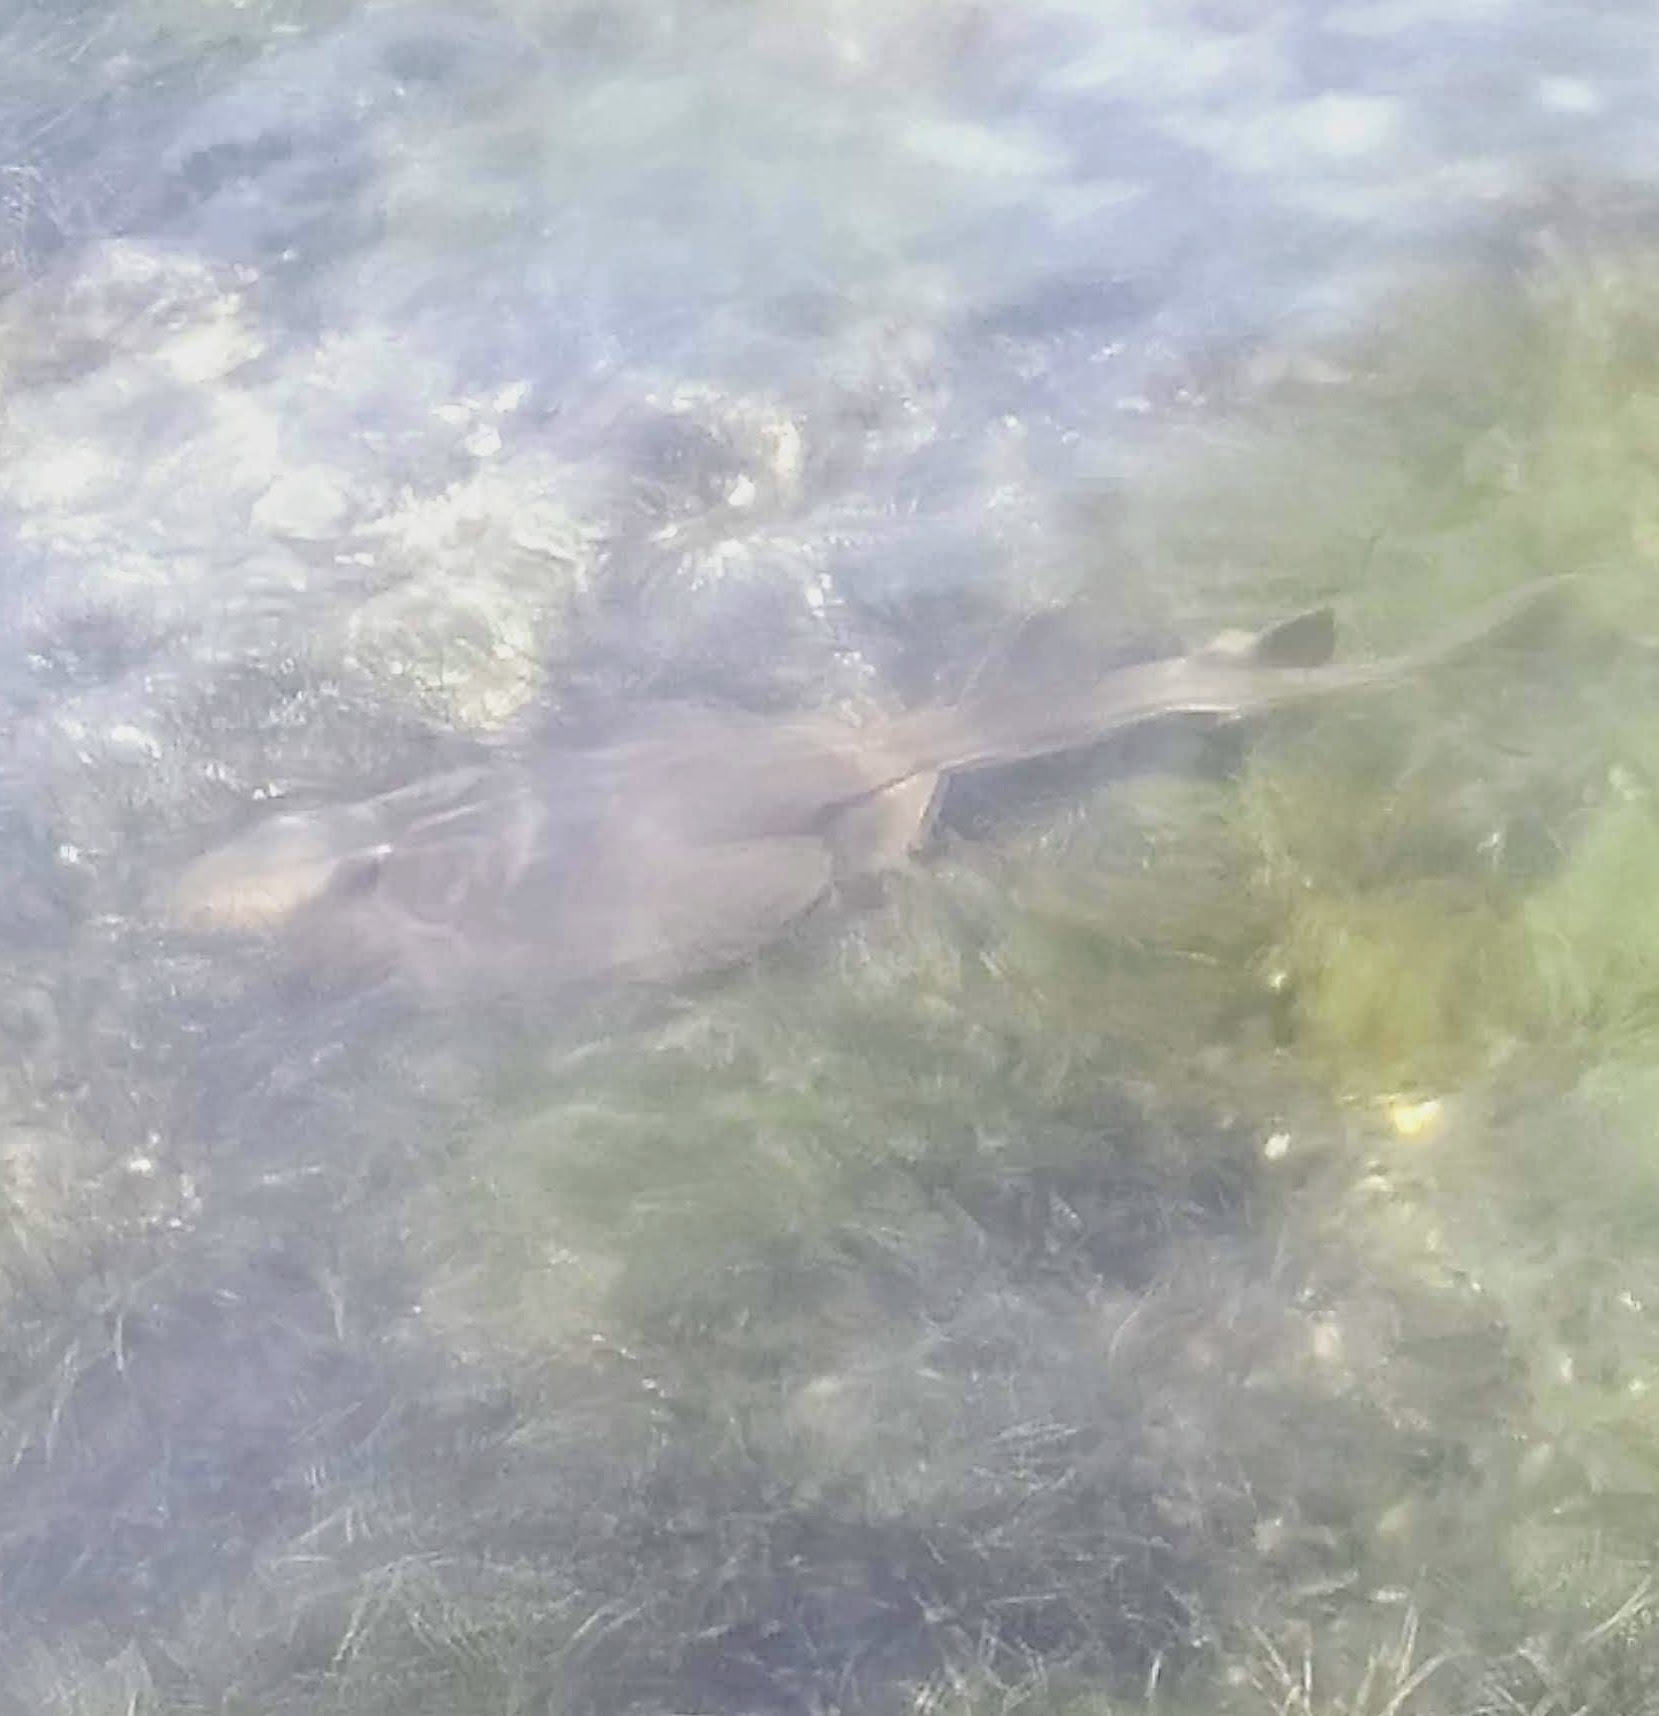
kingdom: Animalia
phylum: Chordata
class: Elasmobranchii
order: Rhinopristiformes
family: Rhinobatidae
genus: Trygonorrhina
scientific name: Trygonorrhina dumerilii
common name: Banjo shark
